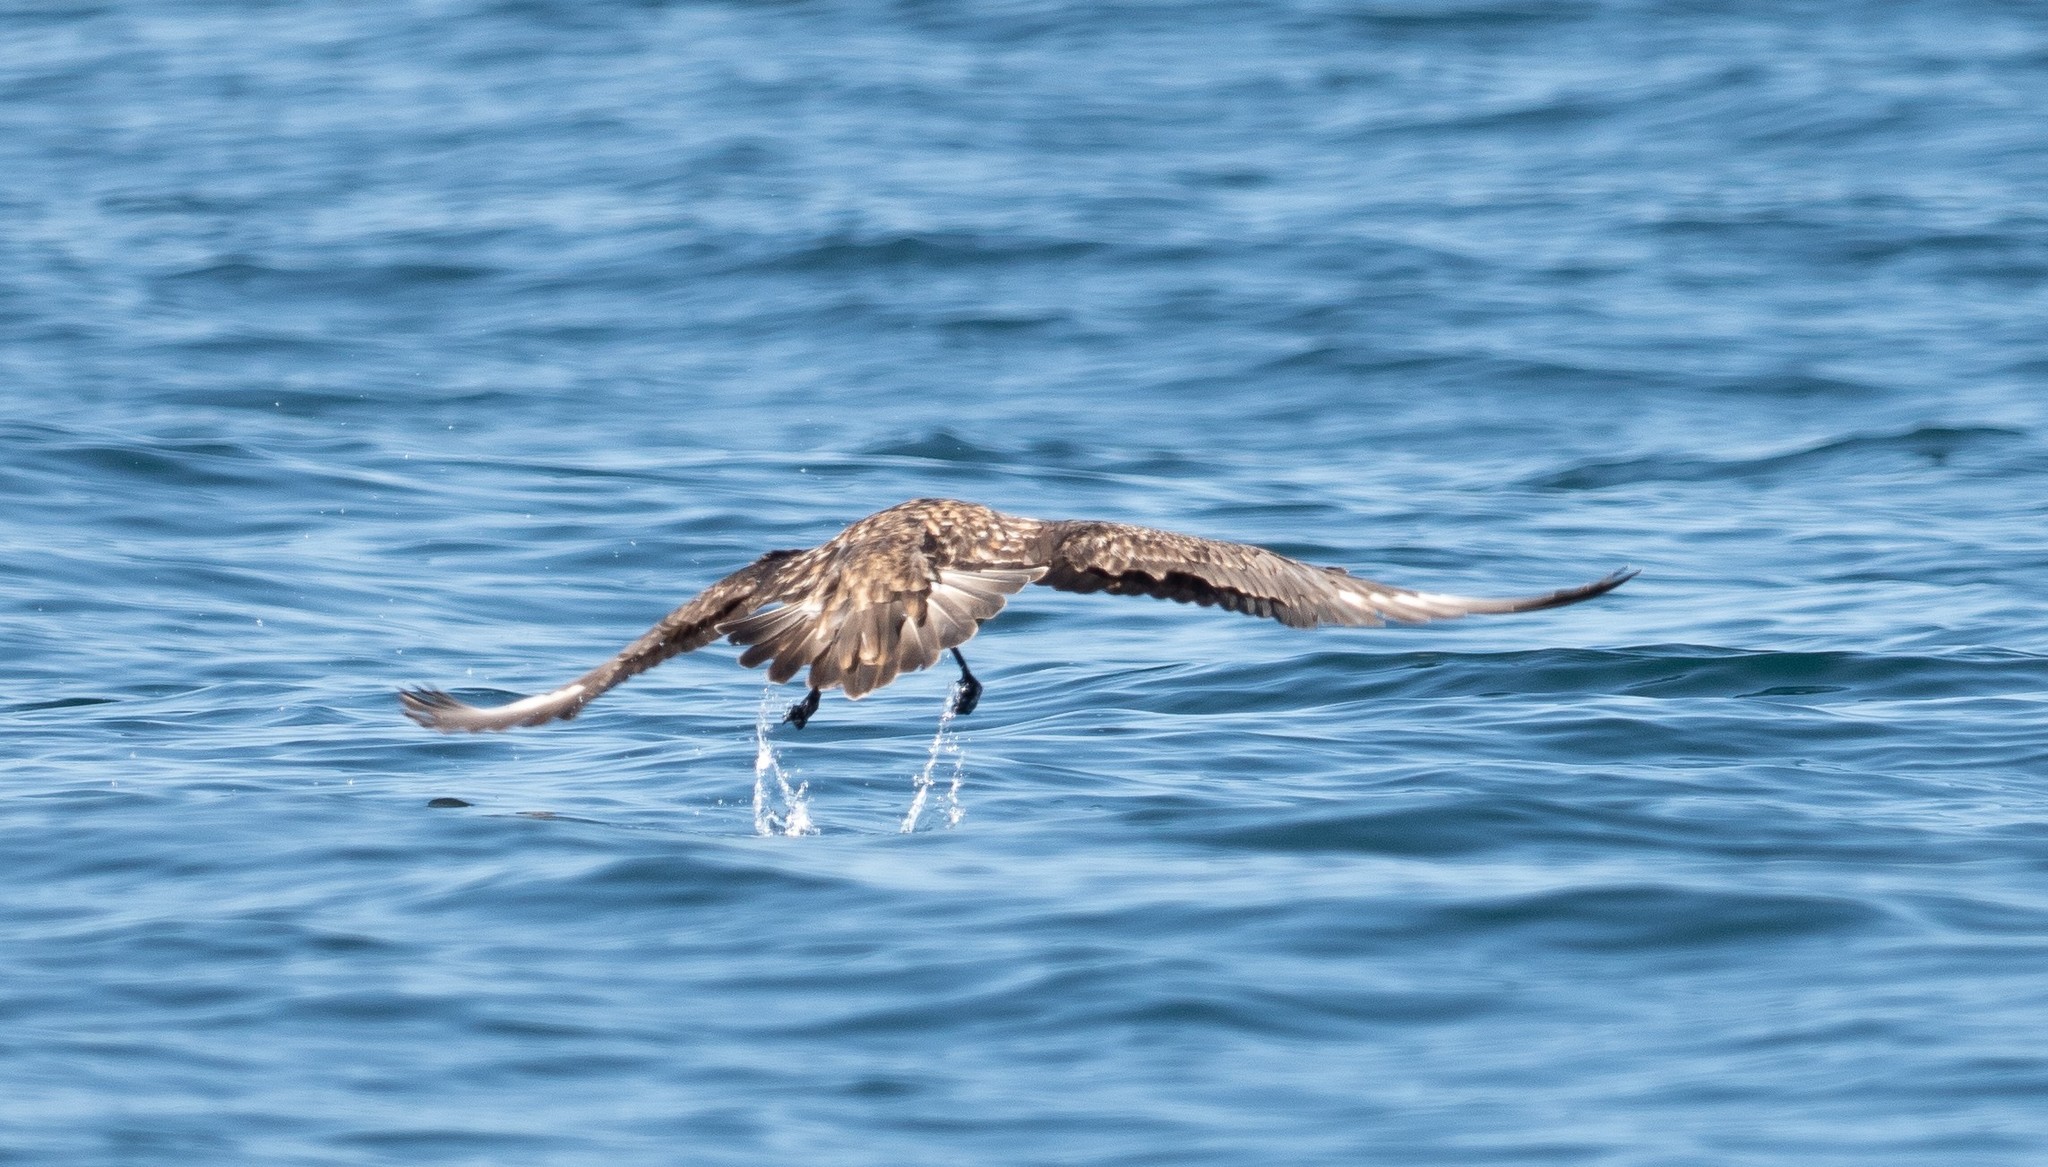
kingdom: Animalia
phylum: Chordata
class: Aves
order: Charadriiformes
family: Stercorariidae
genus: Stercorarius
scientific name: Stercorarius skua
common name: Great skua
